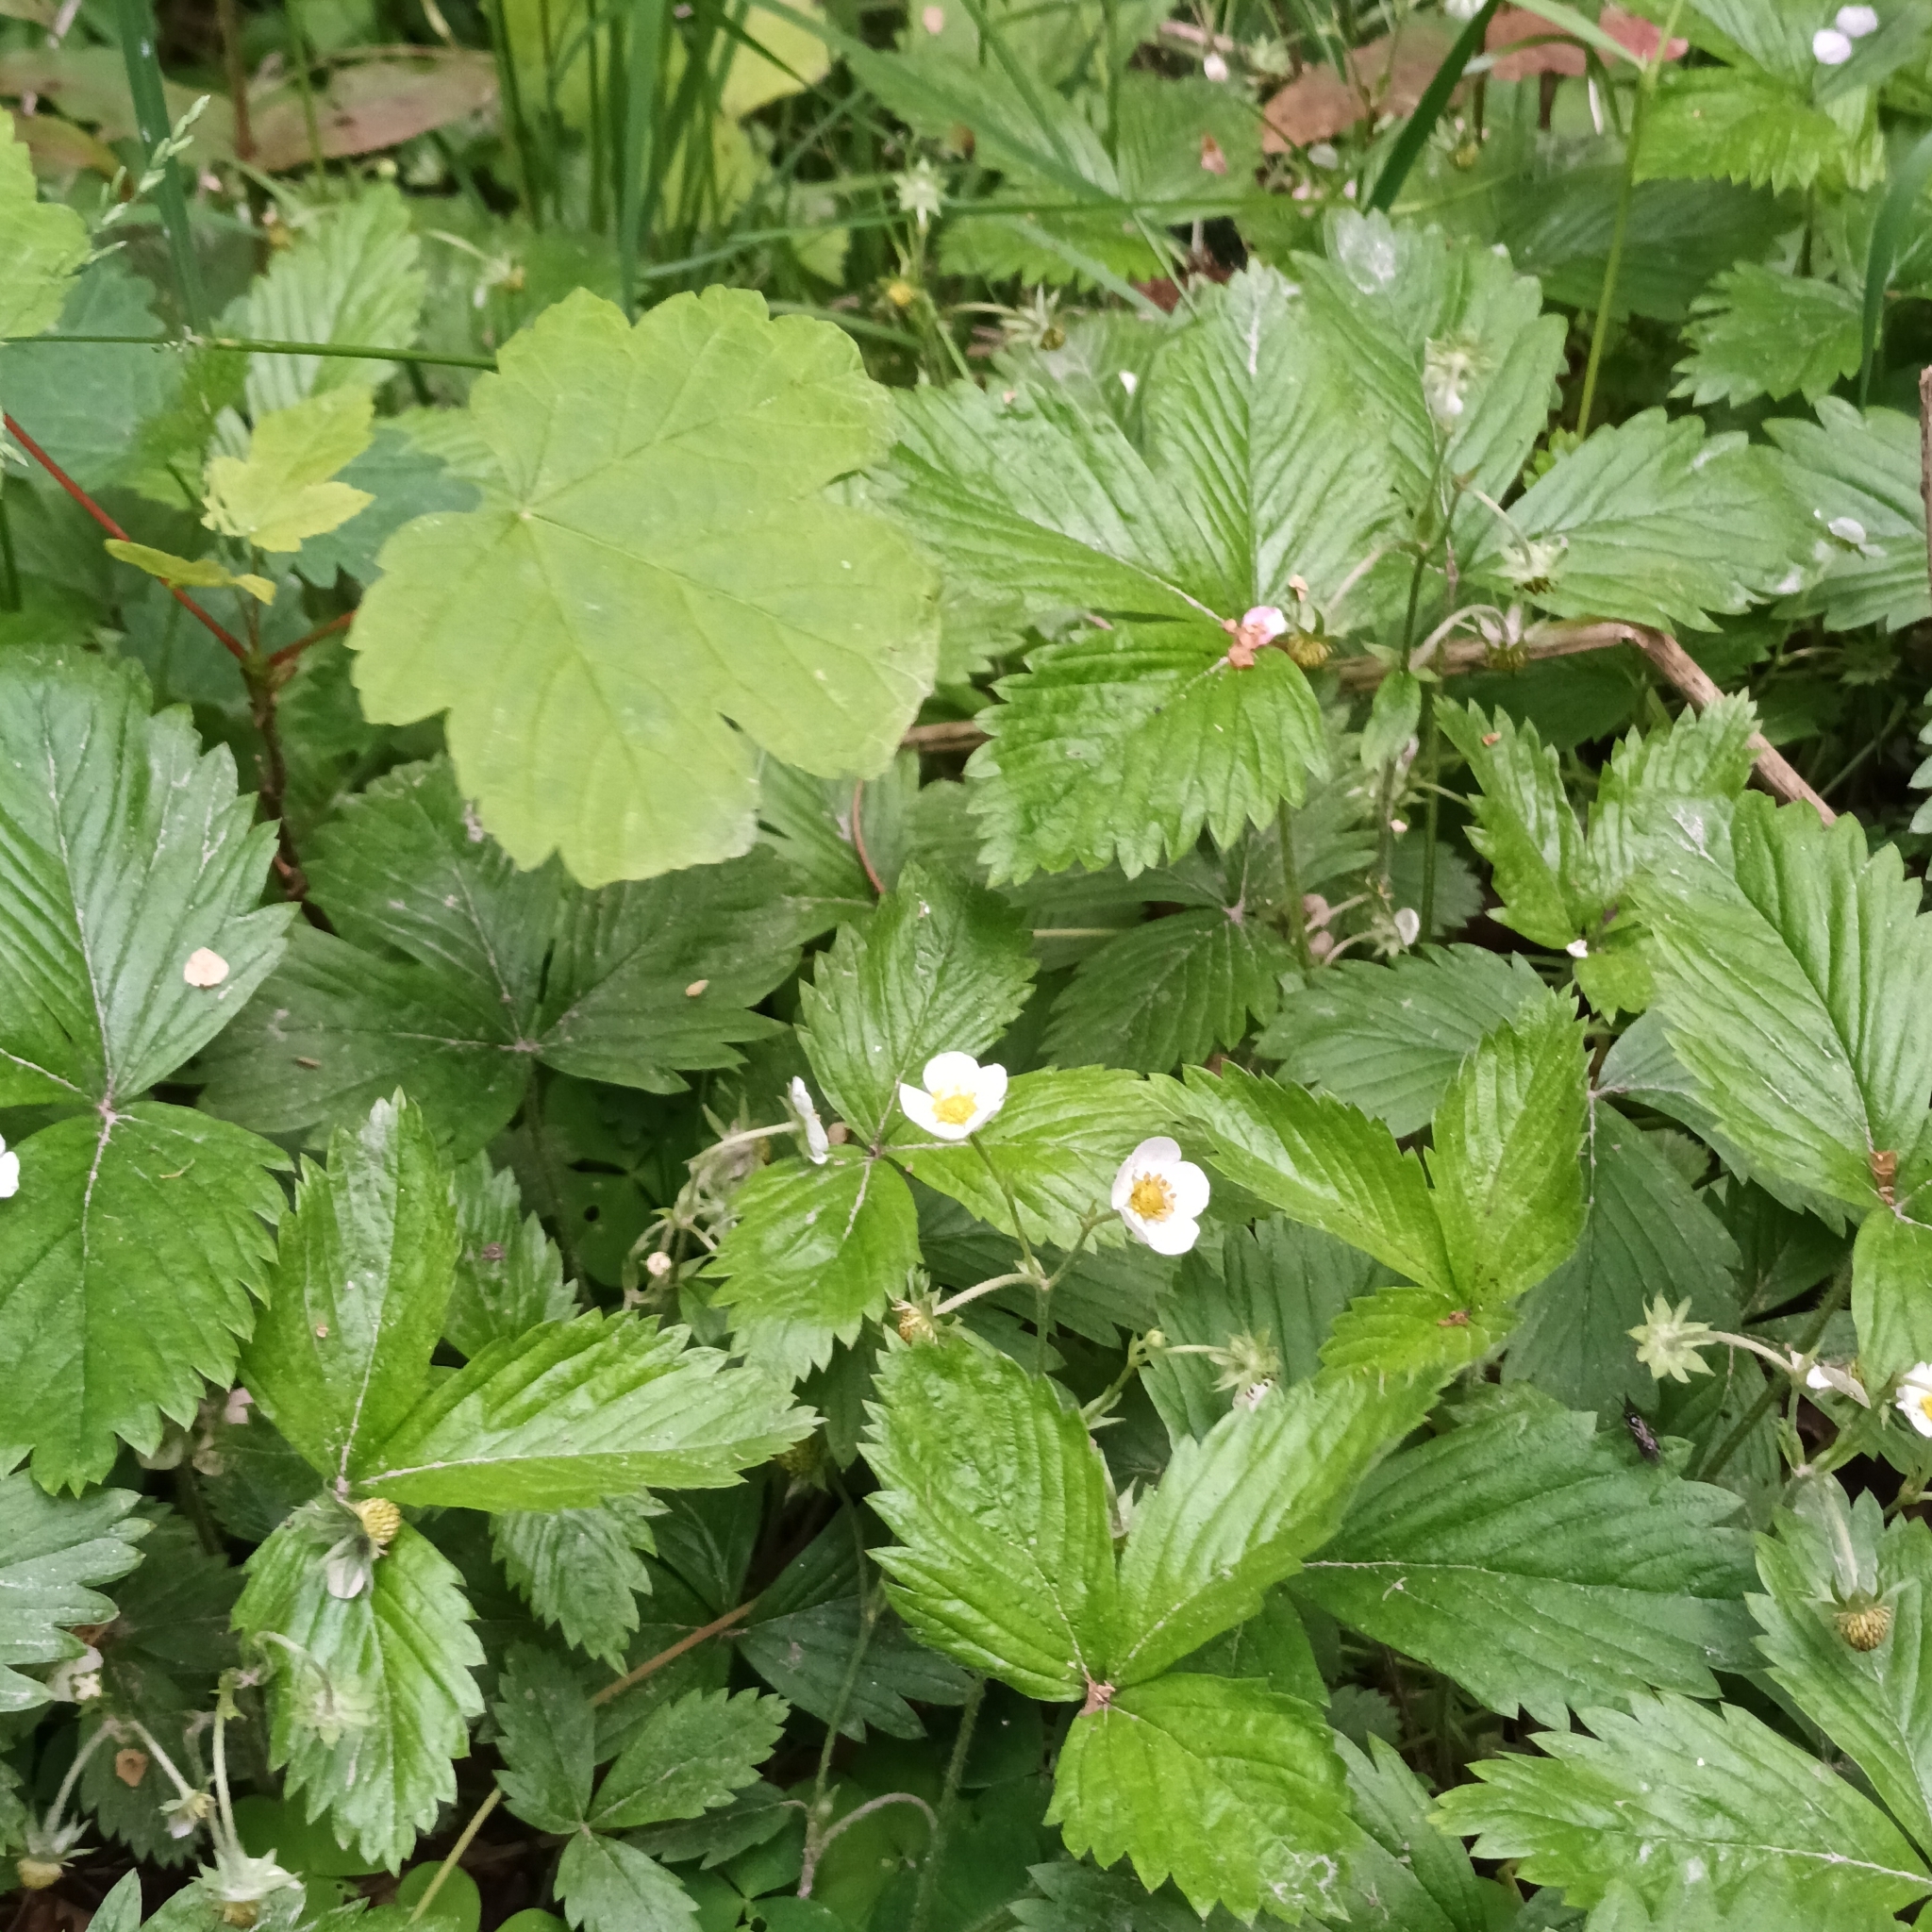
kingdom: Plantae
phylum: Tracheophyta
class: Magnoliopsida
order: Rosales
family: Rosaceae
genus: Fragaria
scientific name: Fragaria vesca
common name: Wild strawberry
